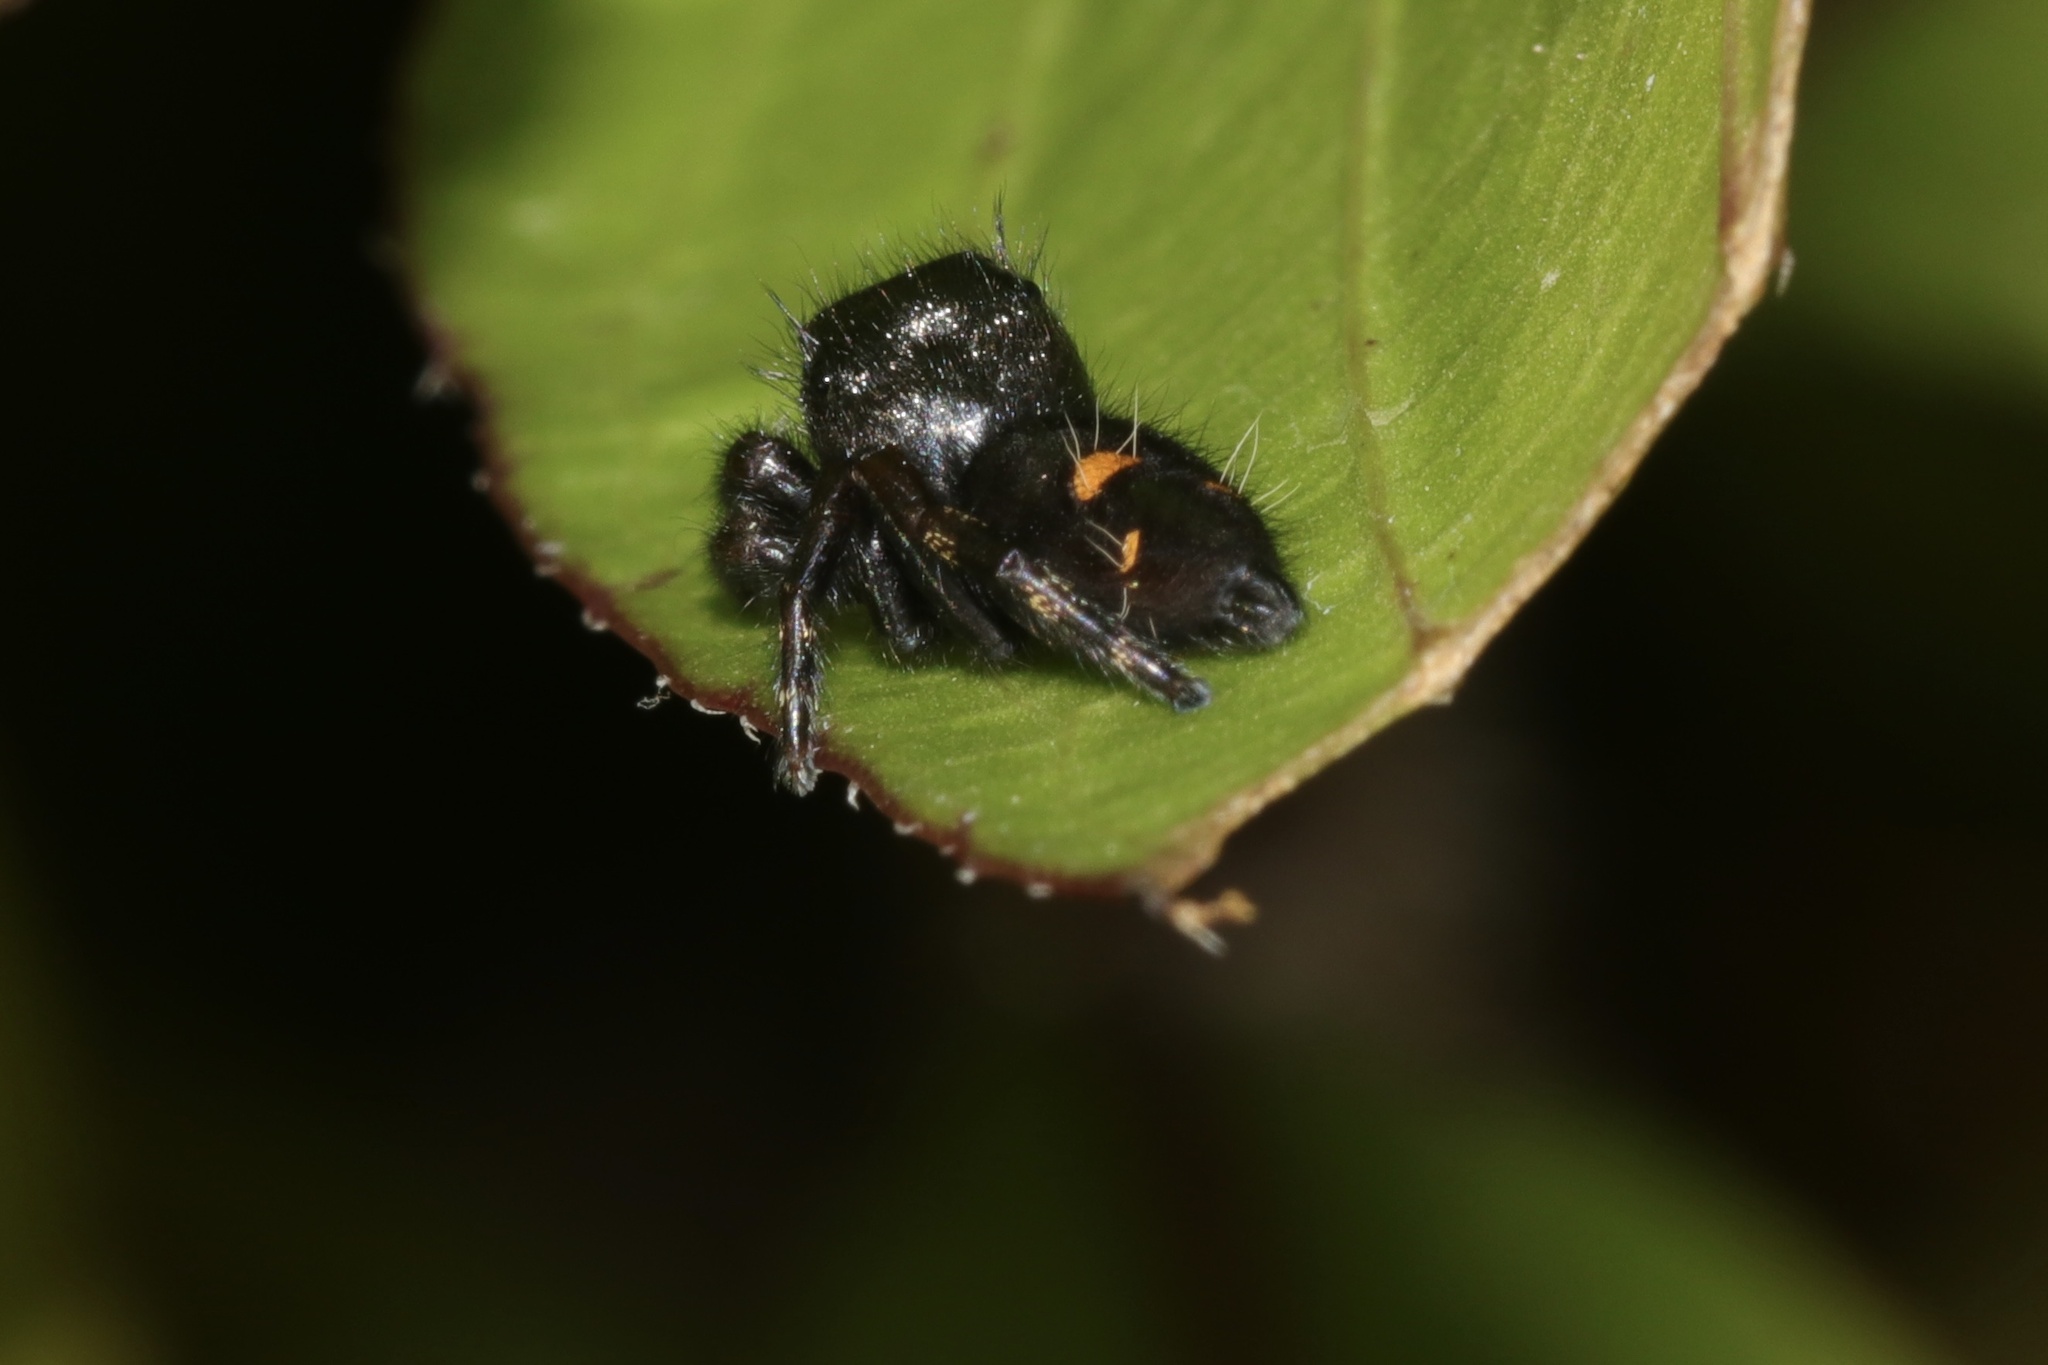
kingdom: Animalia
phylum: Arthropoda
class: Arachnida
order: Araneae
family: Salticidae
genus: Phidippus
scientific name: Phidippus audax
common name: Bold jumper
